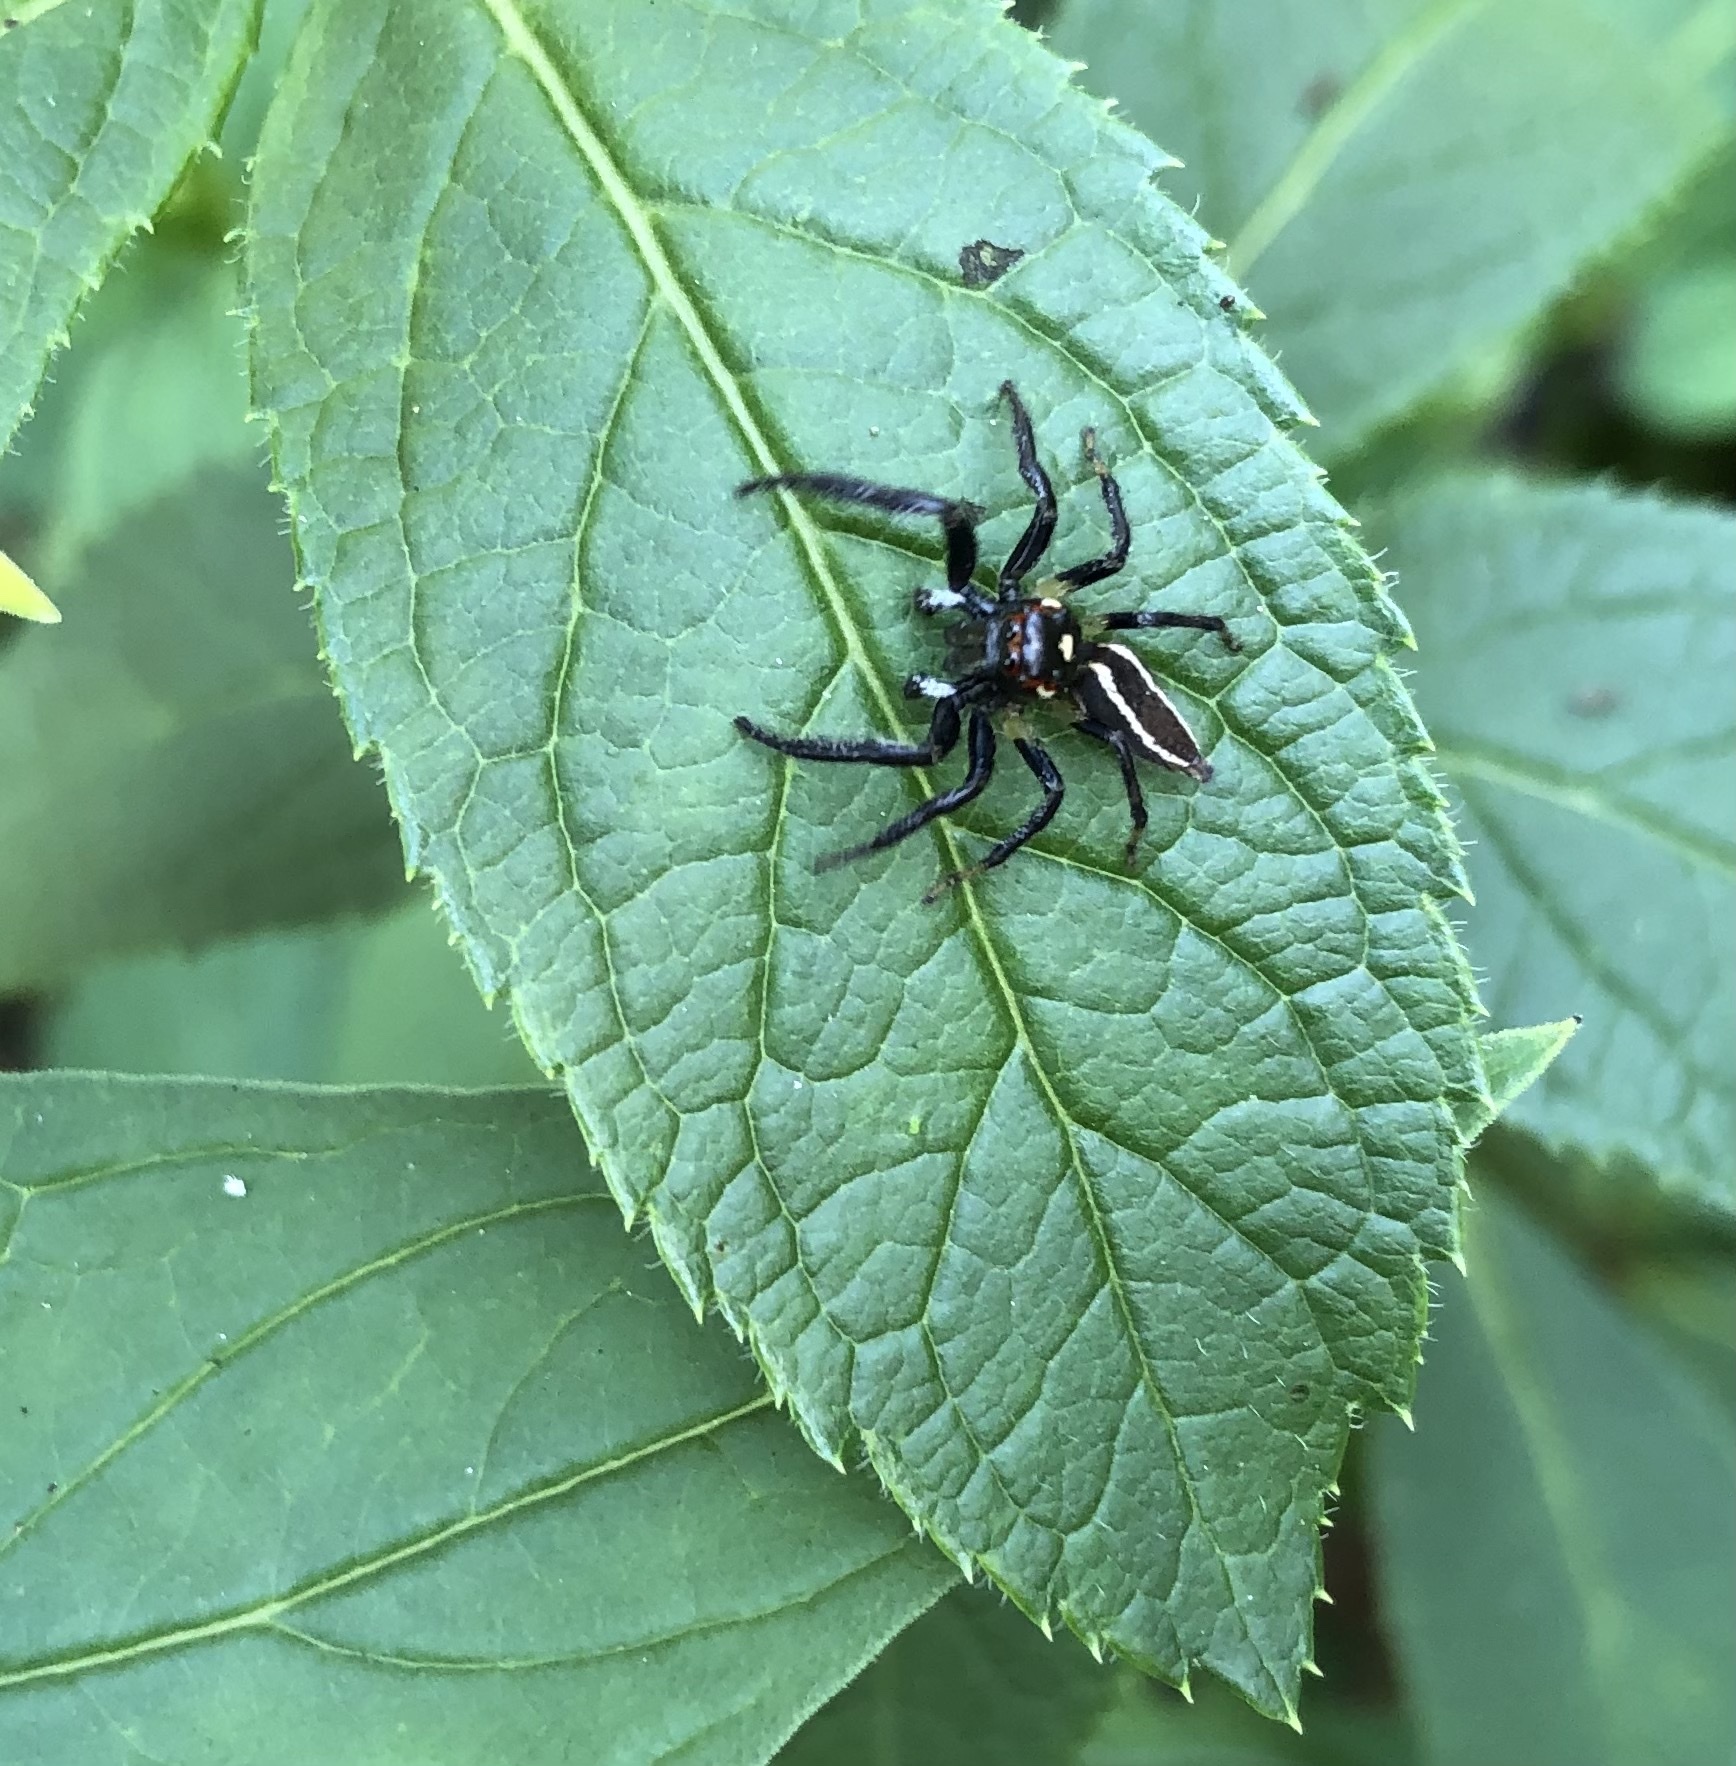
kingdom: Animalia
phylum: Arthropoda
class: Arachnida
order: Araneae
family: Salticidae
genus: Colonus
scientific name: Colonus sylvanus
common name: Jumping spiders
